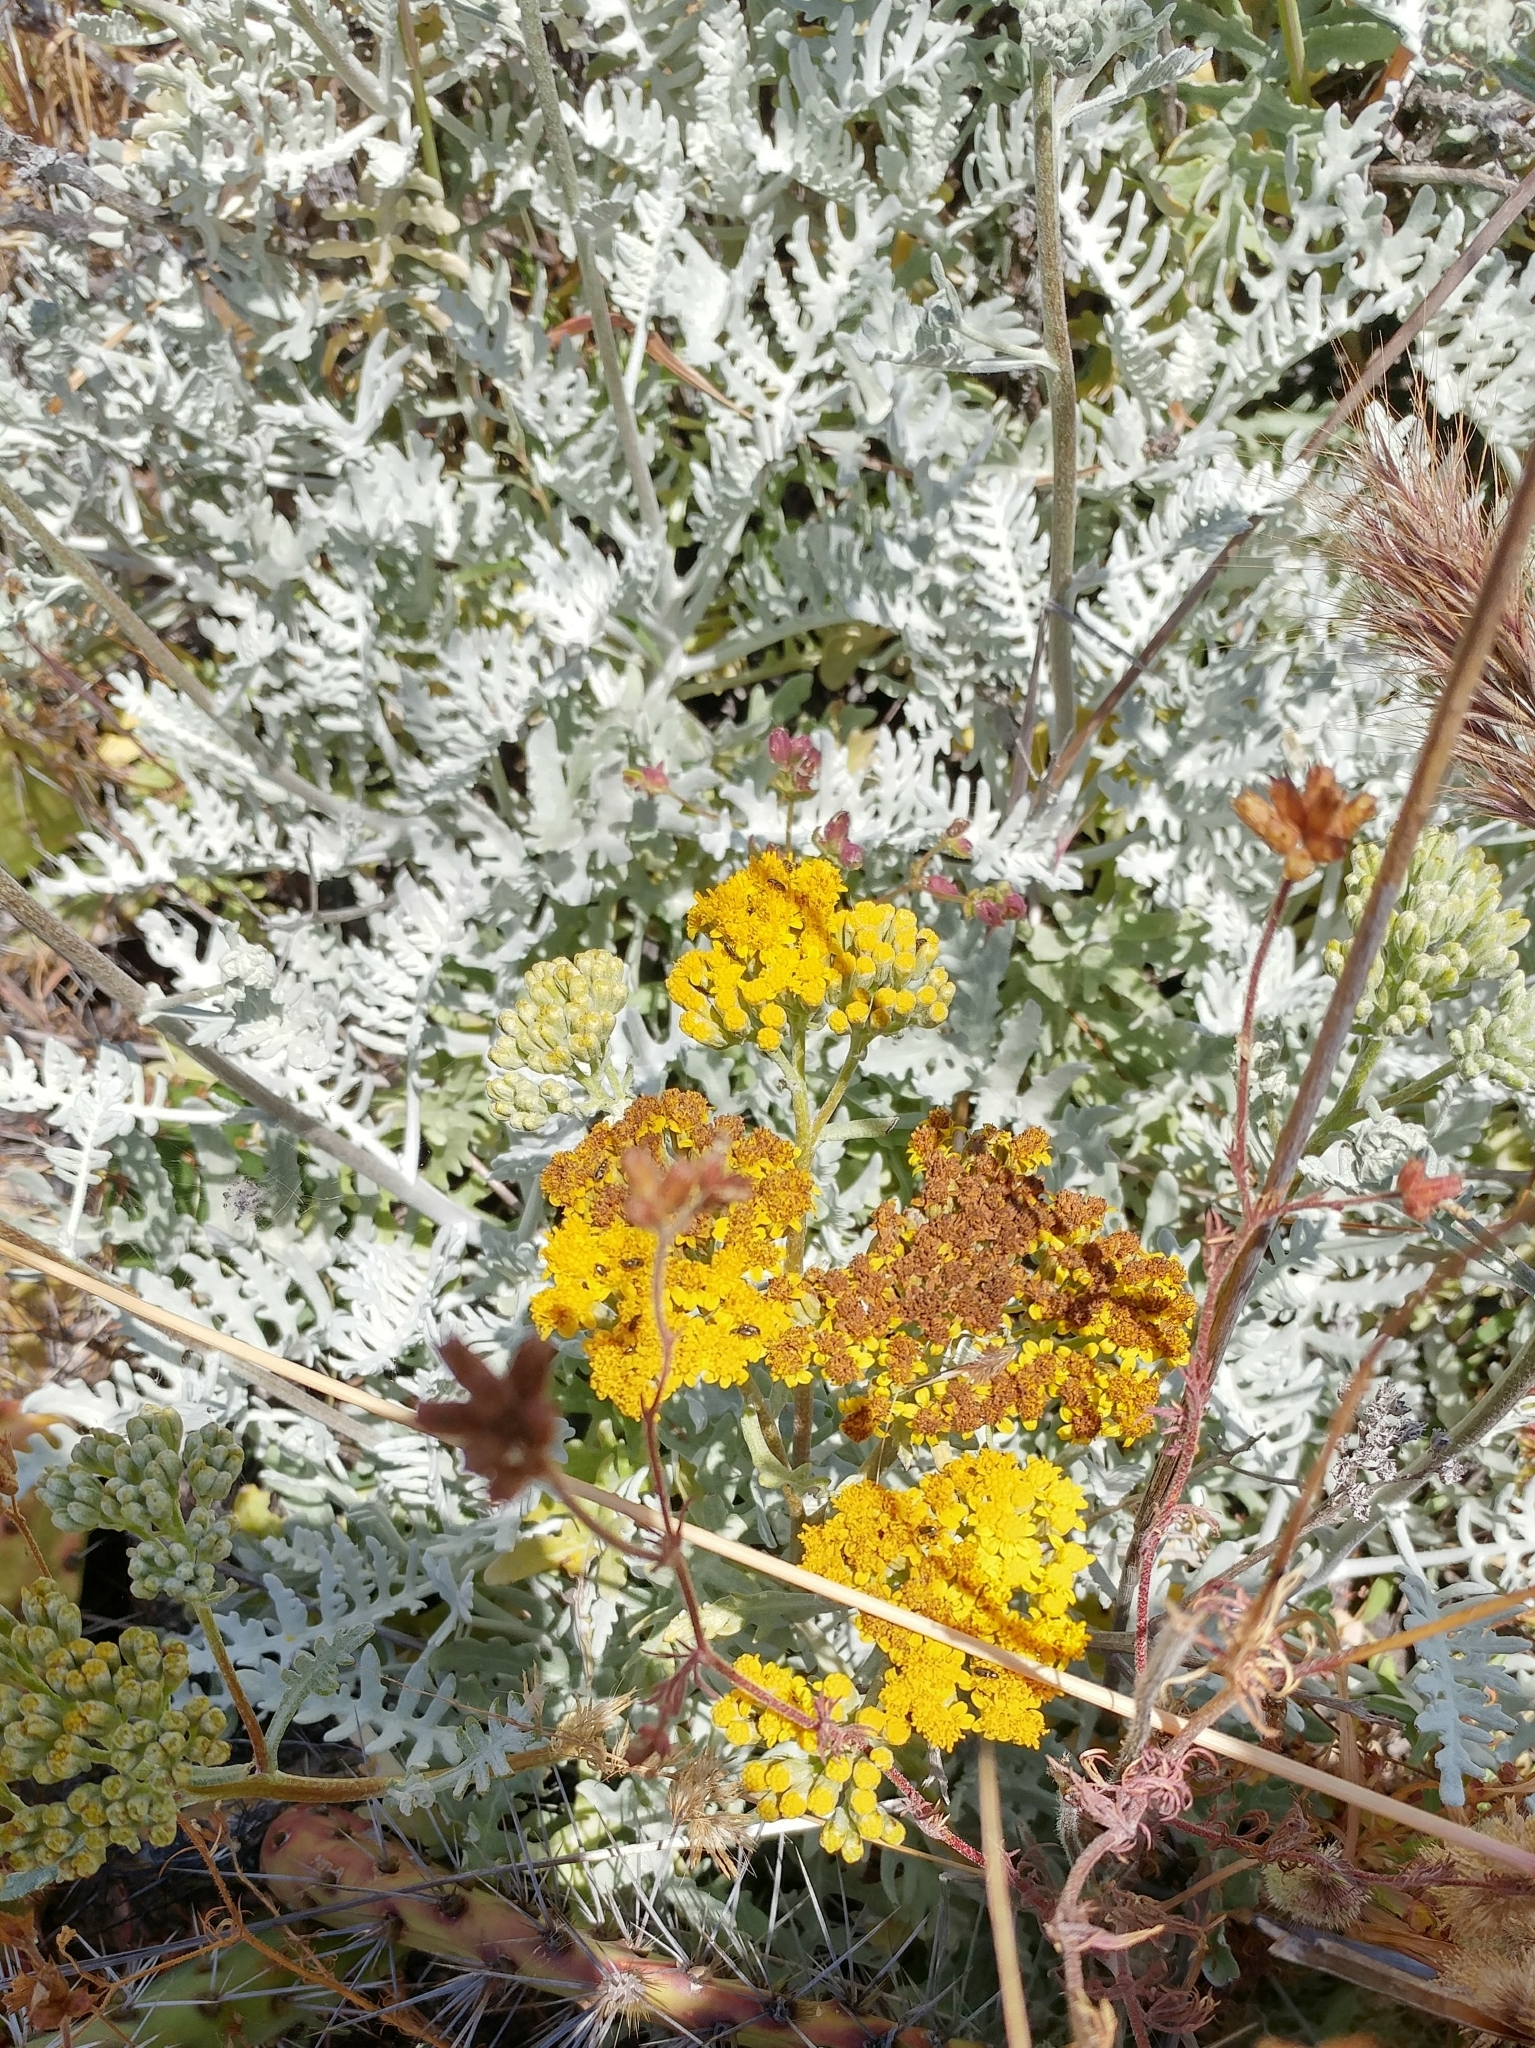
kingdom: Plantae
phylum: Tracheophyta
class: Magnoliopsida
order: Asterales
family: Asteraceae
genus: Constancea
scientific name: Constancea nevinii
